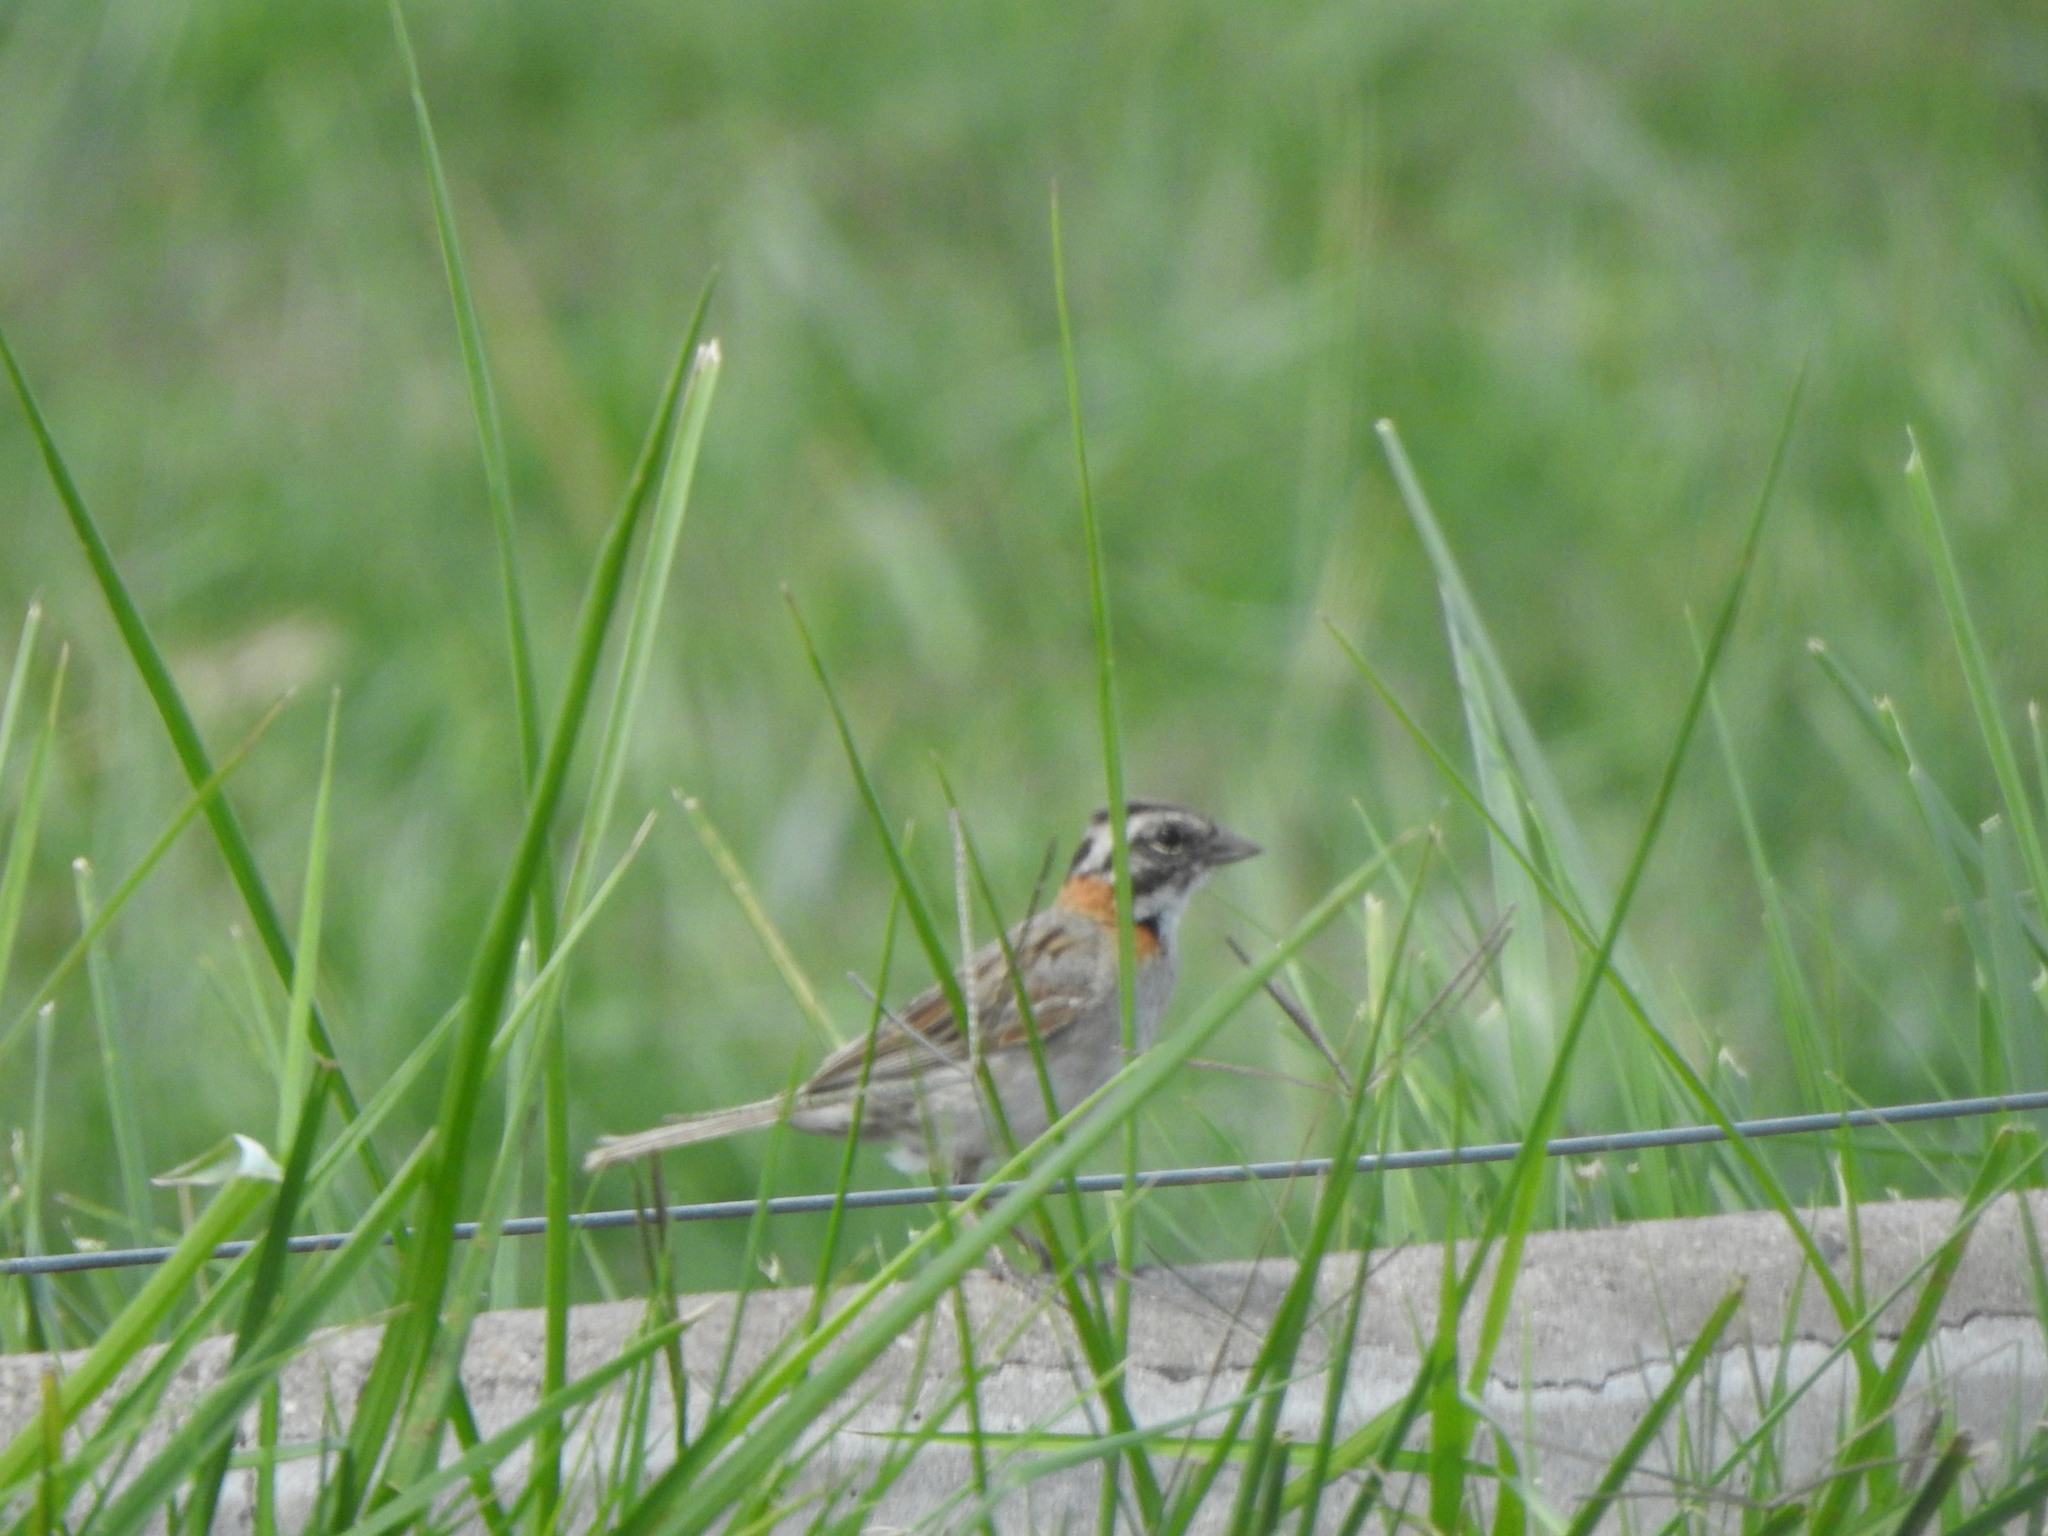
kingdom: Animalia
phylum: Chordata
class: Aves
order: Passeriformes
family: Passerellidae
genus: Zonotrichia
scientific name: Zonotrichia capensis
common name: Rufous-collared sparrow
